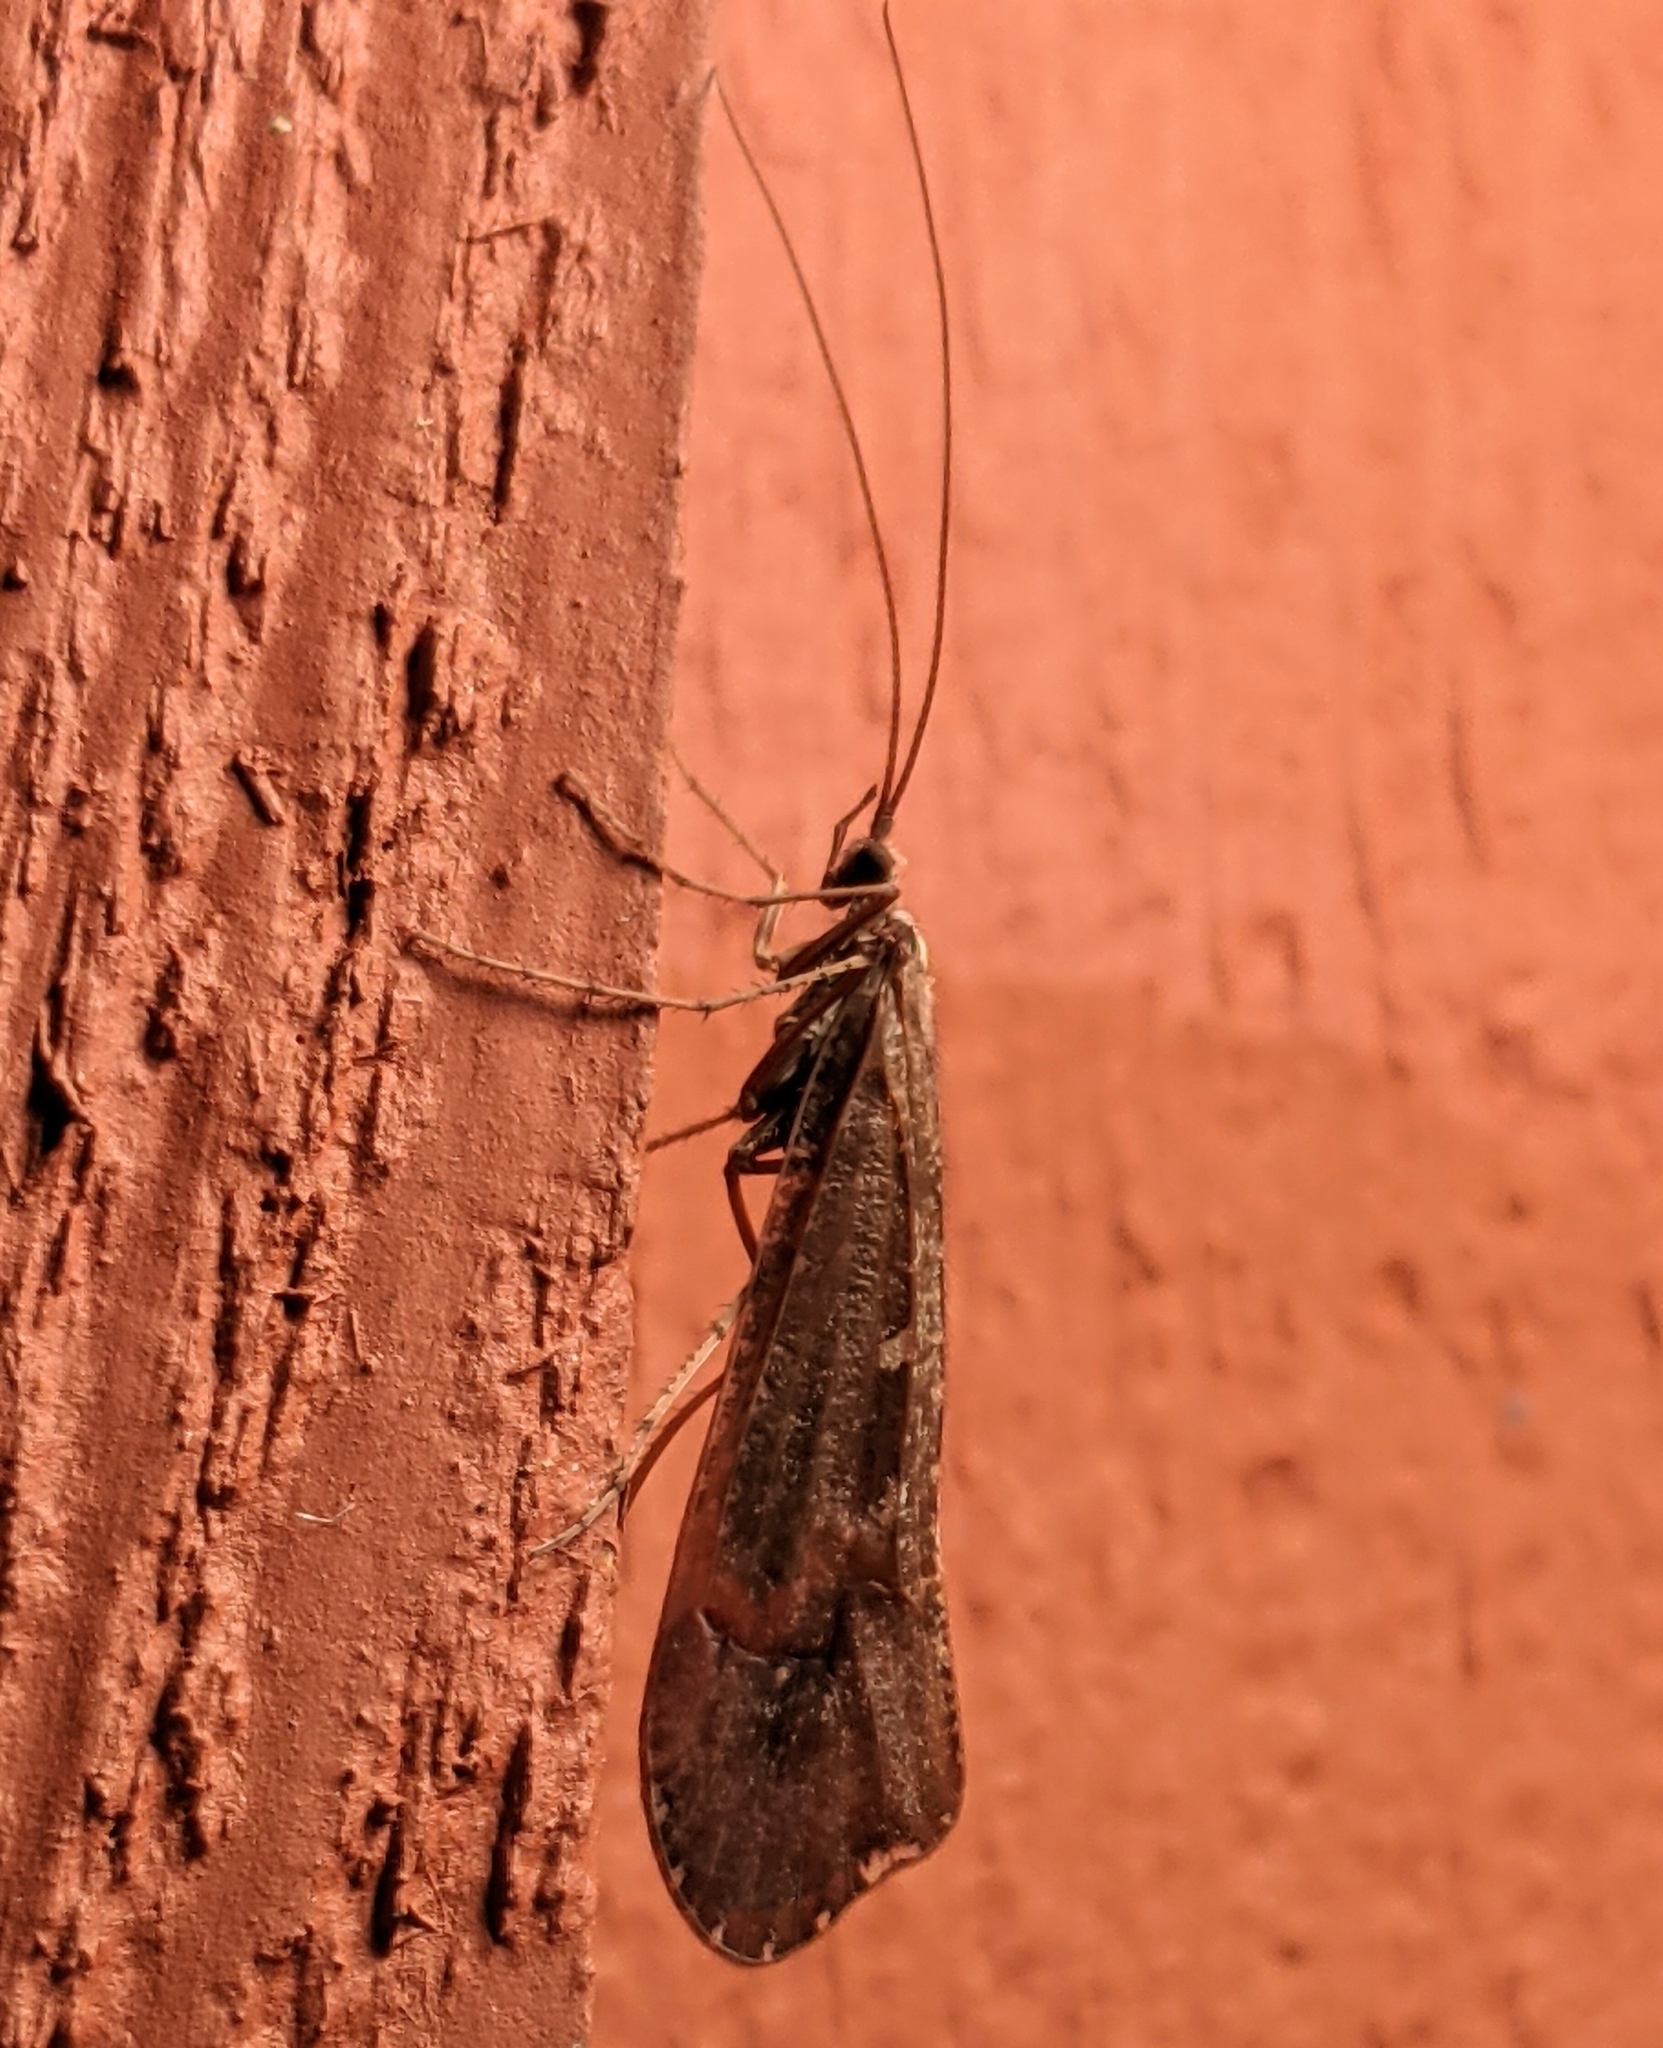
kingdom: Animalia
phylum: Arthropoda
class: Insecta
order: Trichoptera
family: Limnephilidae
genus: Glyphopsyche
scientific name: Glyphopsyche irrorata
